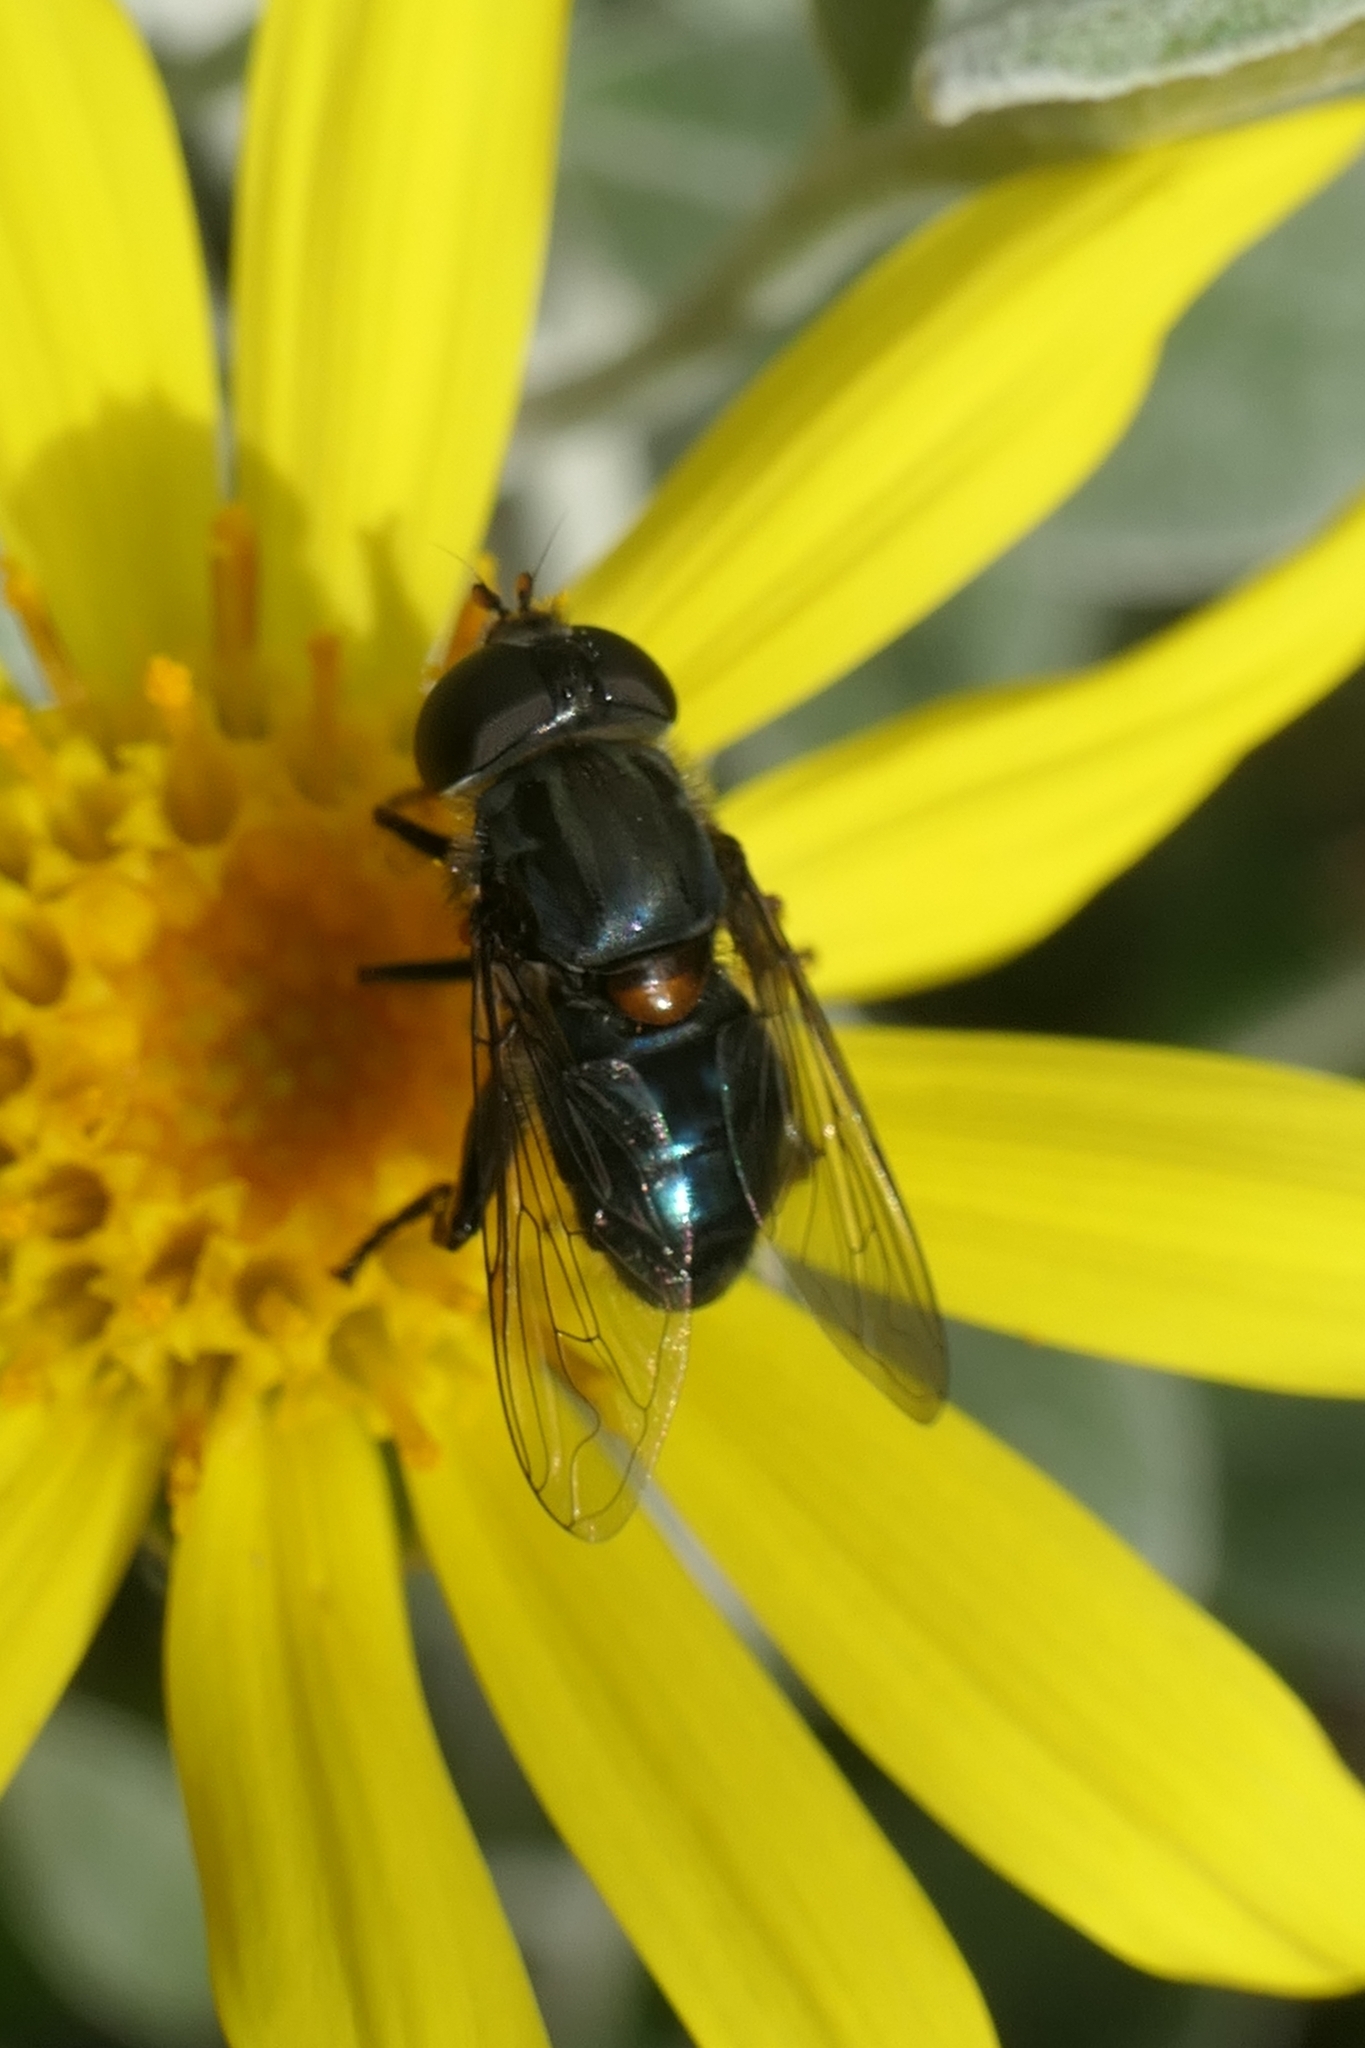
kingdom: Animalia
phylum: Arthropoda
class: Insecta
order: Diptera
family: Syrphidae
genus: Helophilus
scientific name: Helophilus hochstetteri
